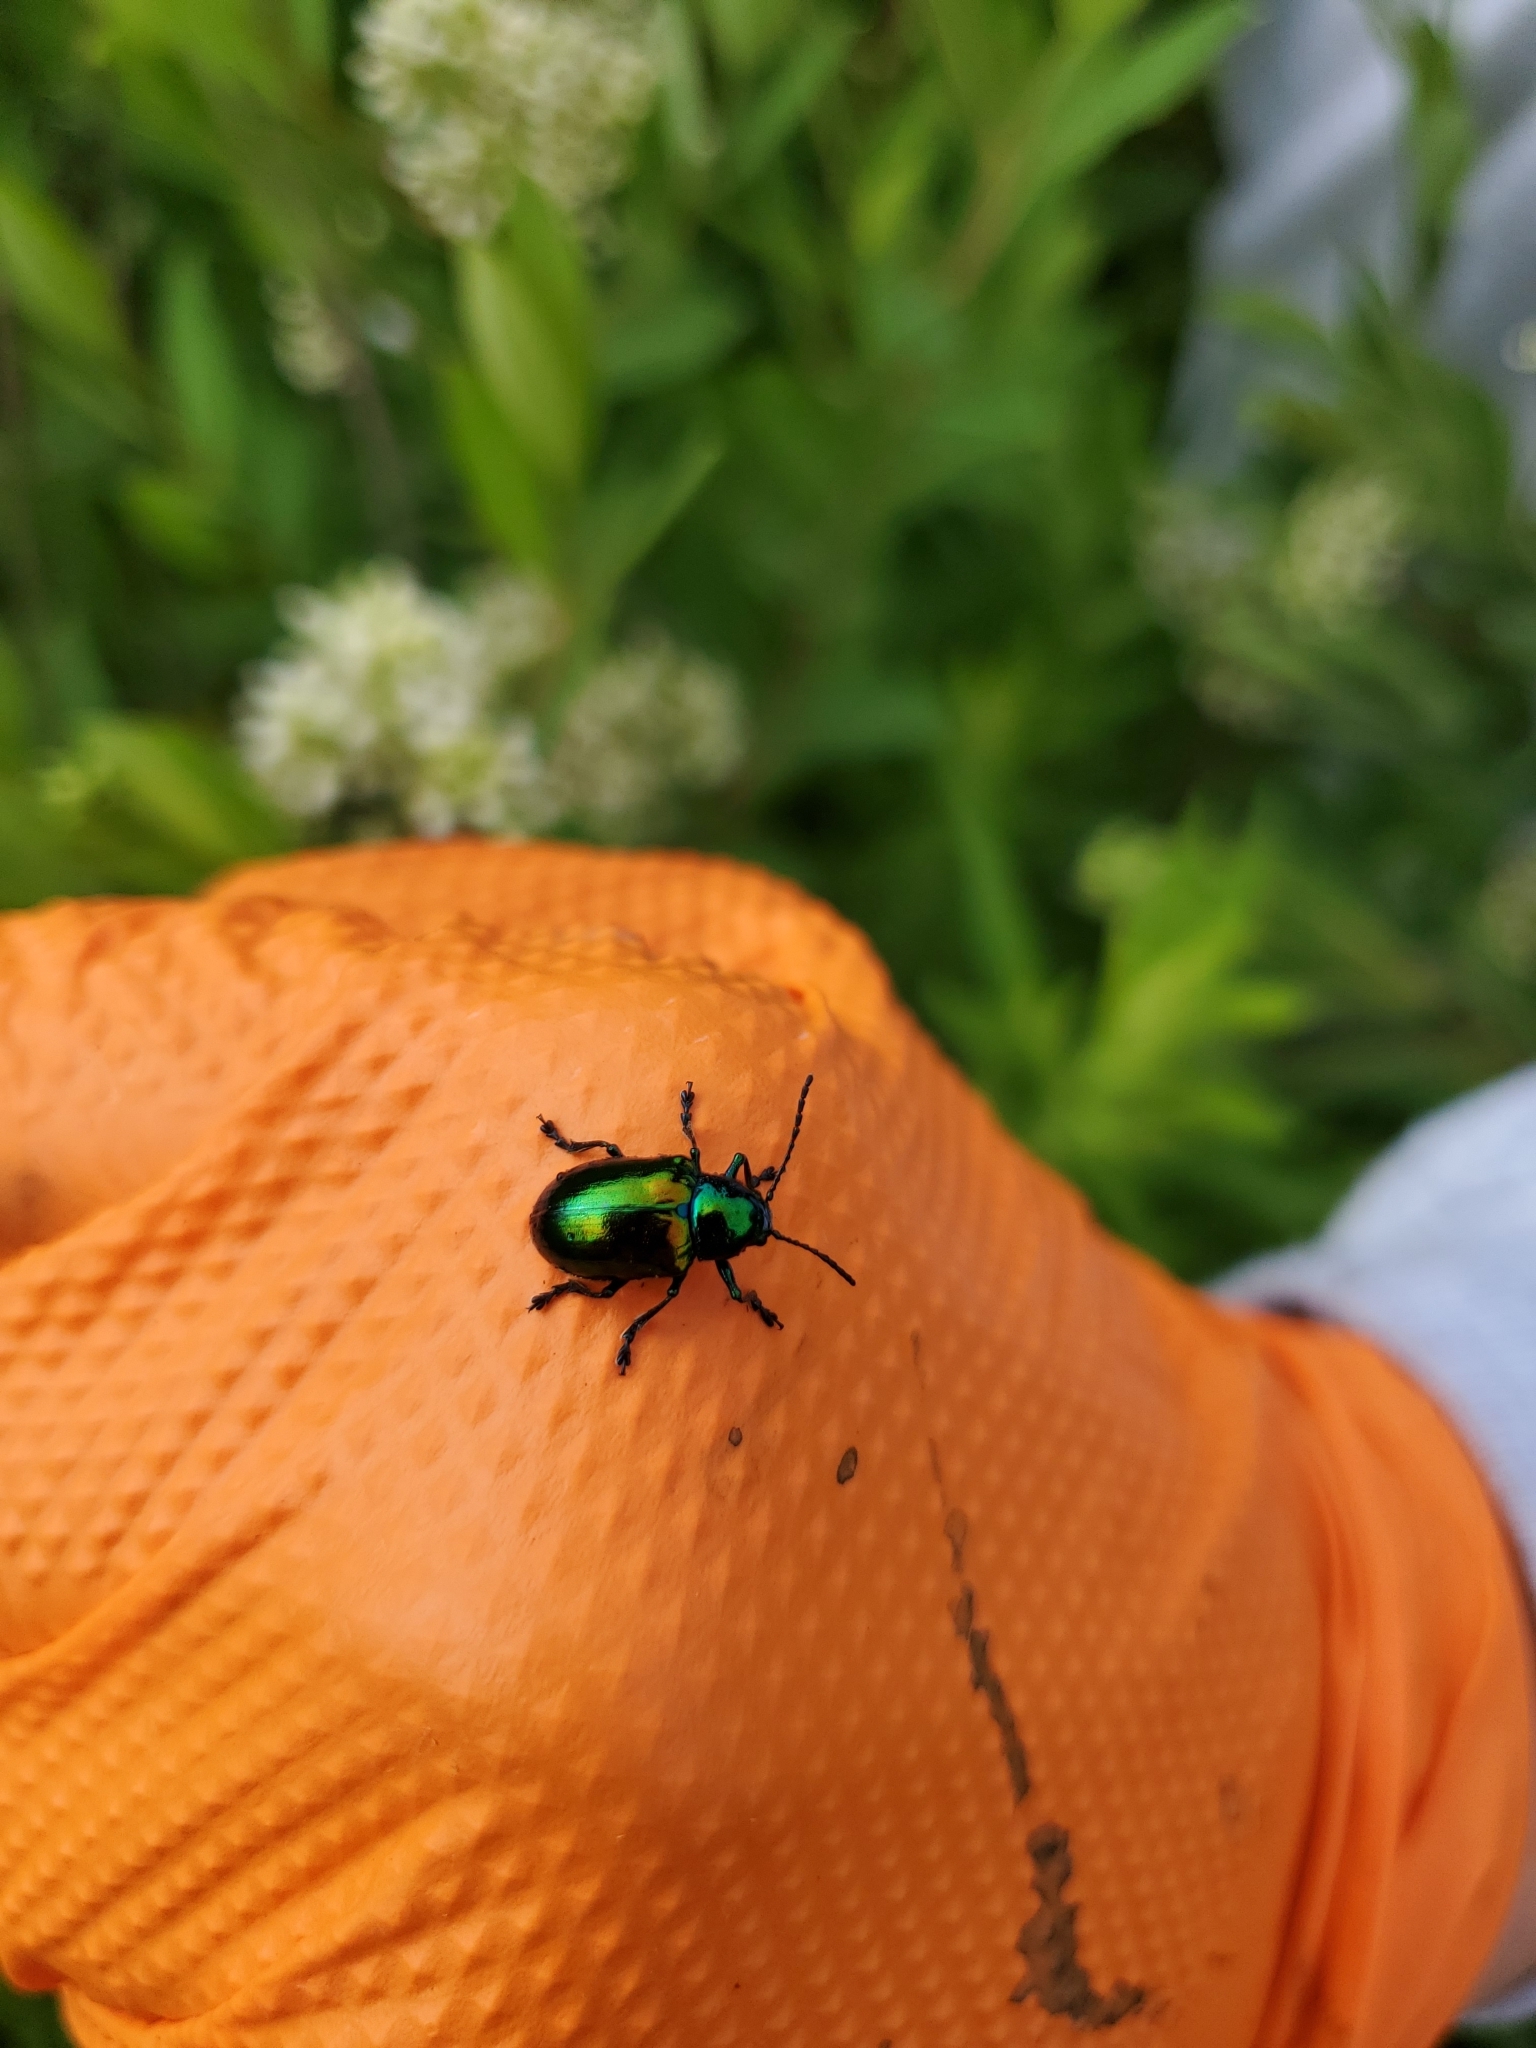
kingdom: Animalia
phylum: Arthropoda
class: Insecta
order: Coleoptera
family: Chrysomelidae
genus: Chrysochus
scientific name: Chrysochus auratus
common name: Dogbane leaf beetle
